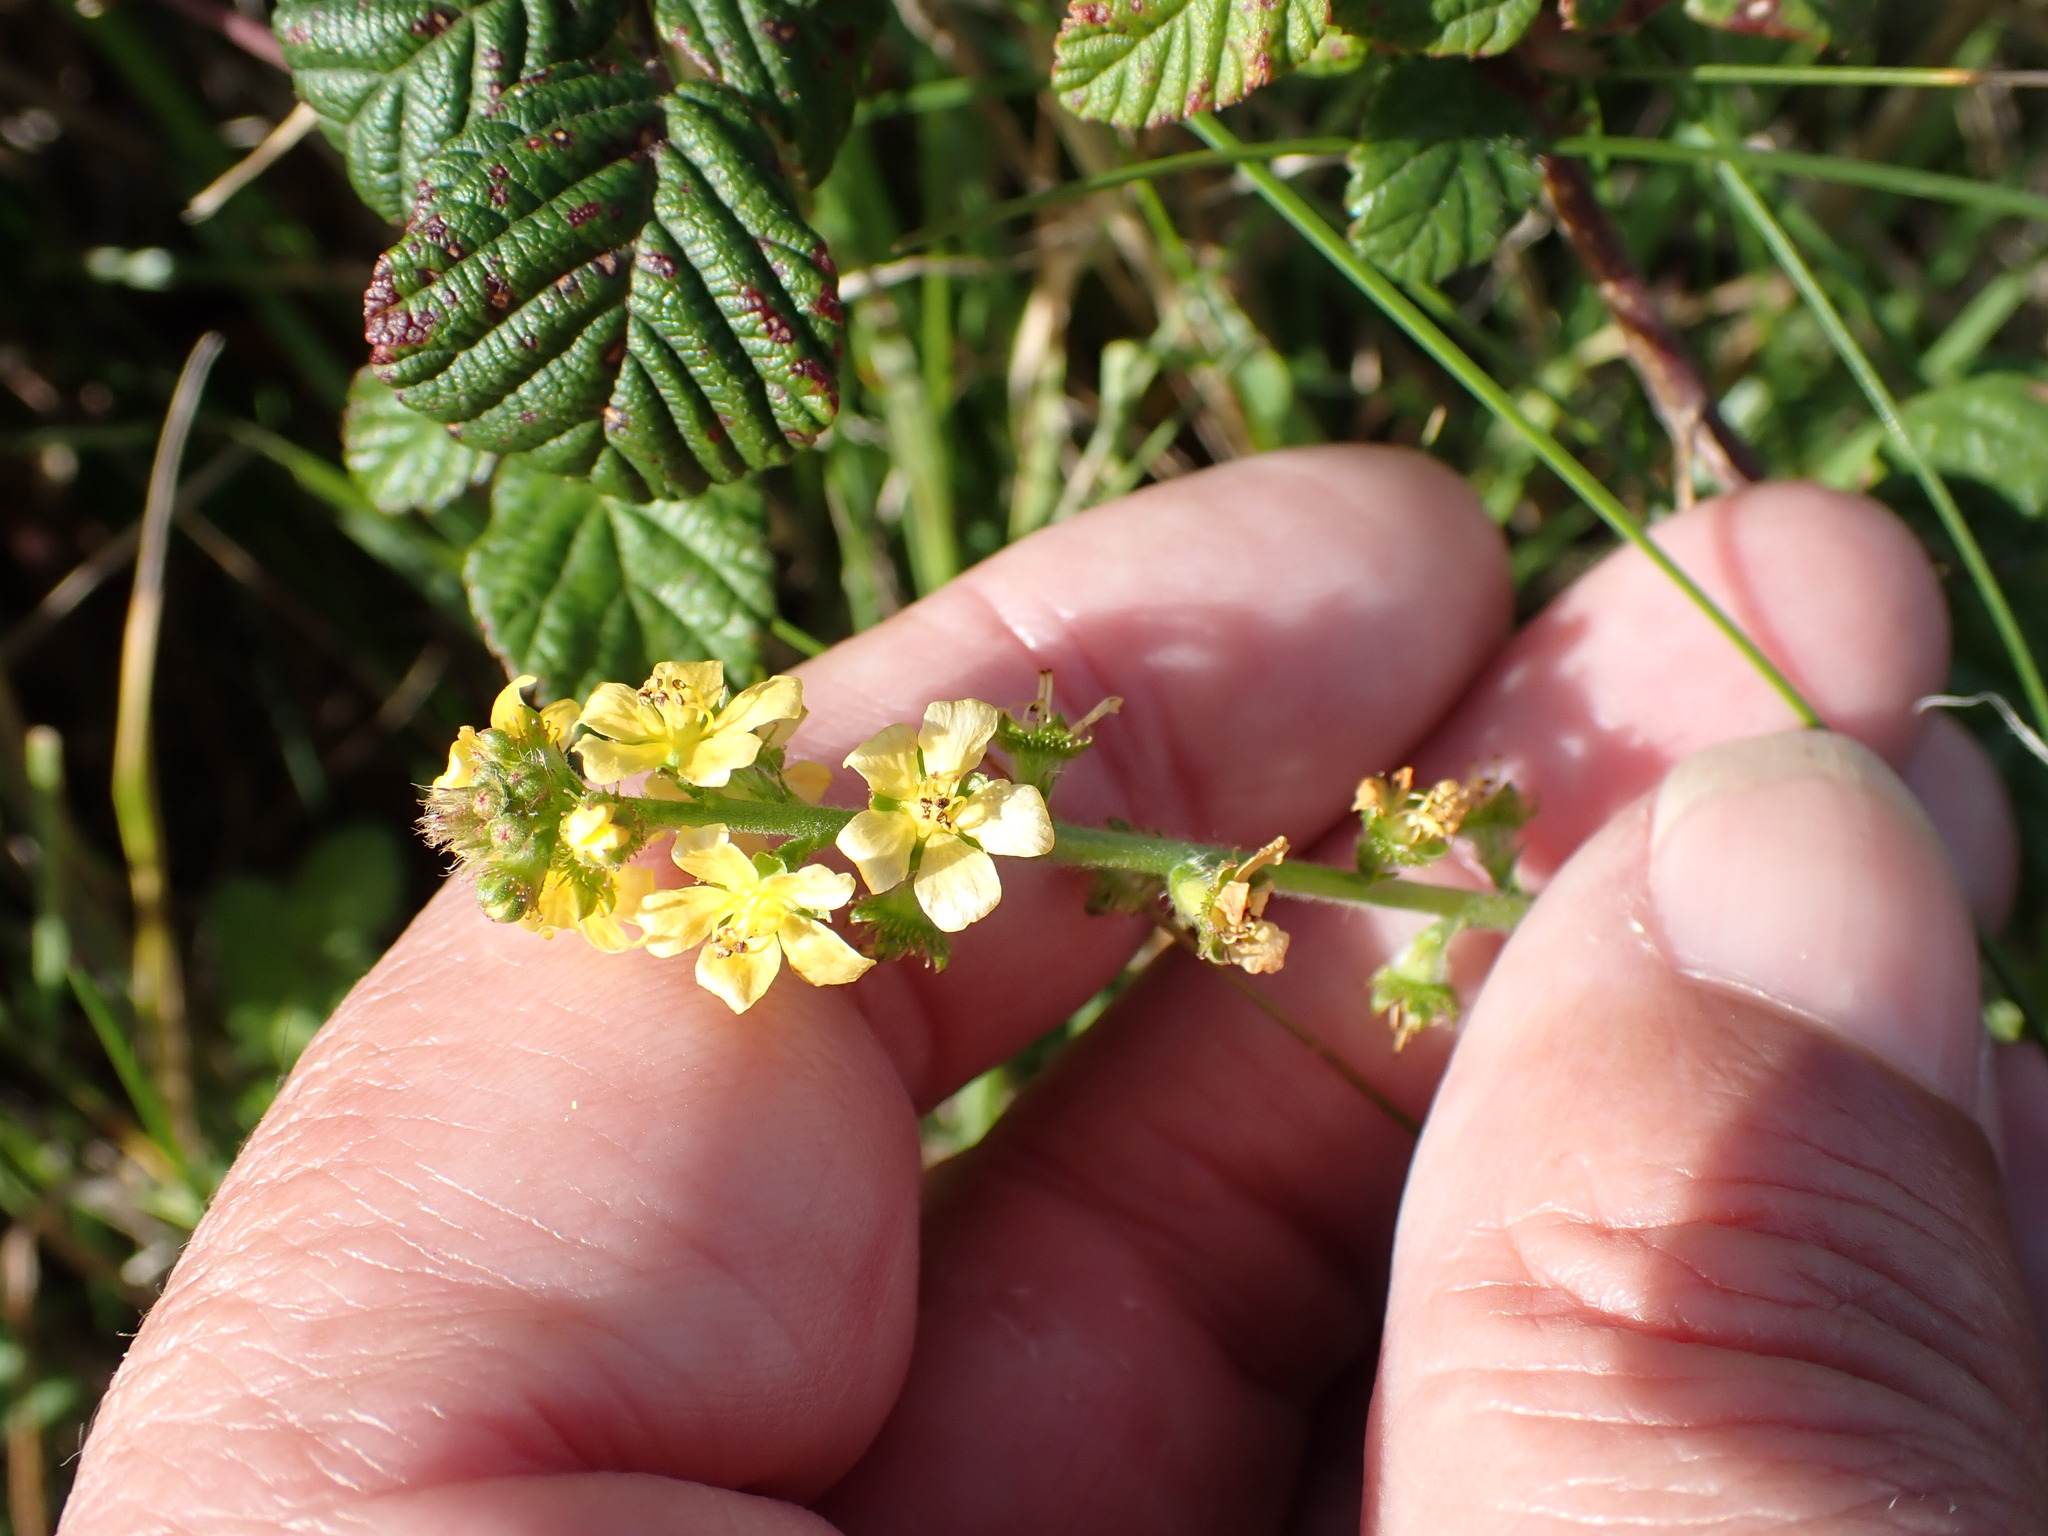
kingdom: Plantae
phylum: Tracheophyta
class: Magnoliopsida
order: Rosales
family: Rosaceae
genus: Agrimonia
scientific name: Agrimonia eupatoria
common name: Agrimony
